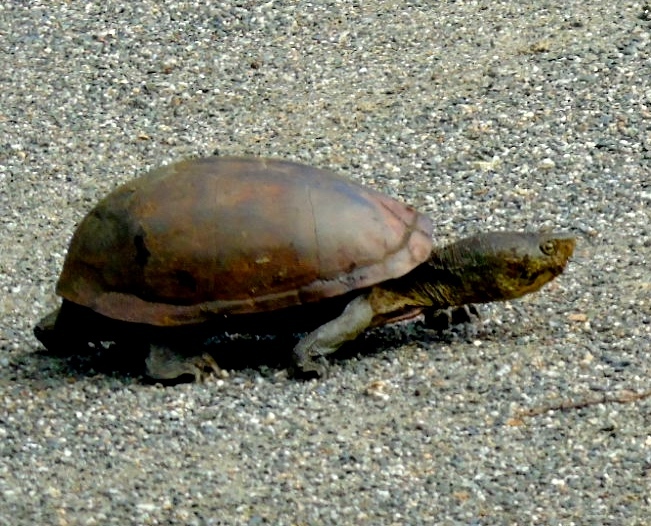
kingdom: Animalia
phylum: Chordata
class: Testudines
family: Kinosternidae
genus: Kinosternon
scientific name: Kinosternon integrum
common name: Mexican mud turtle
